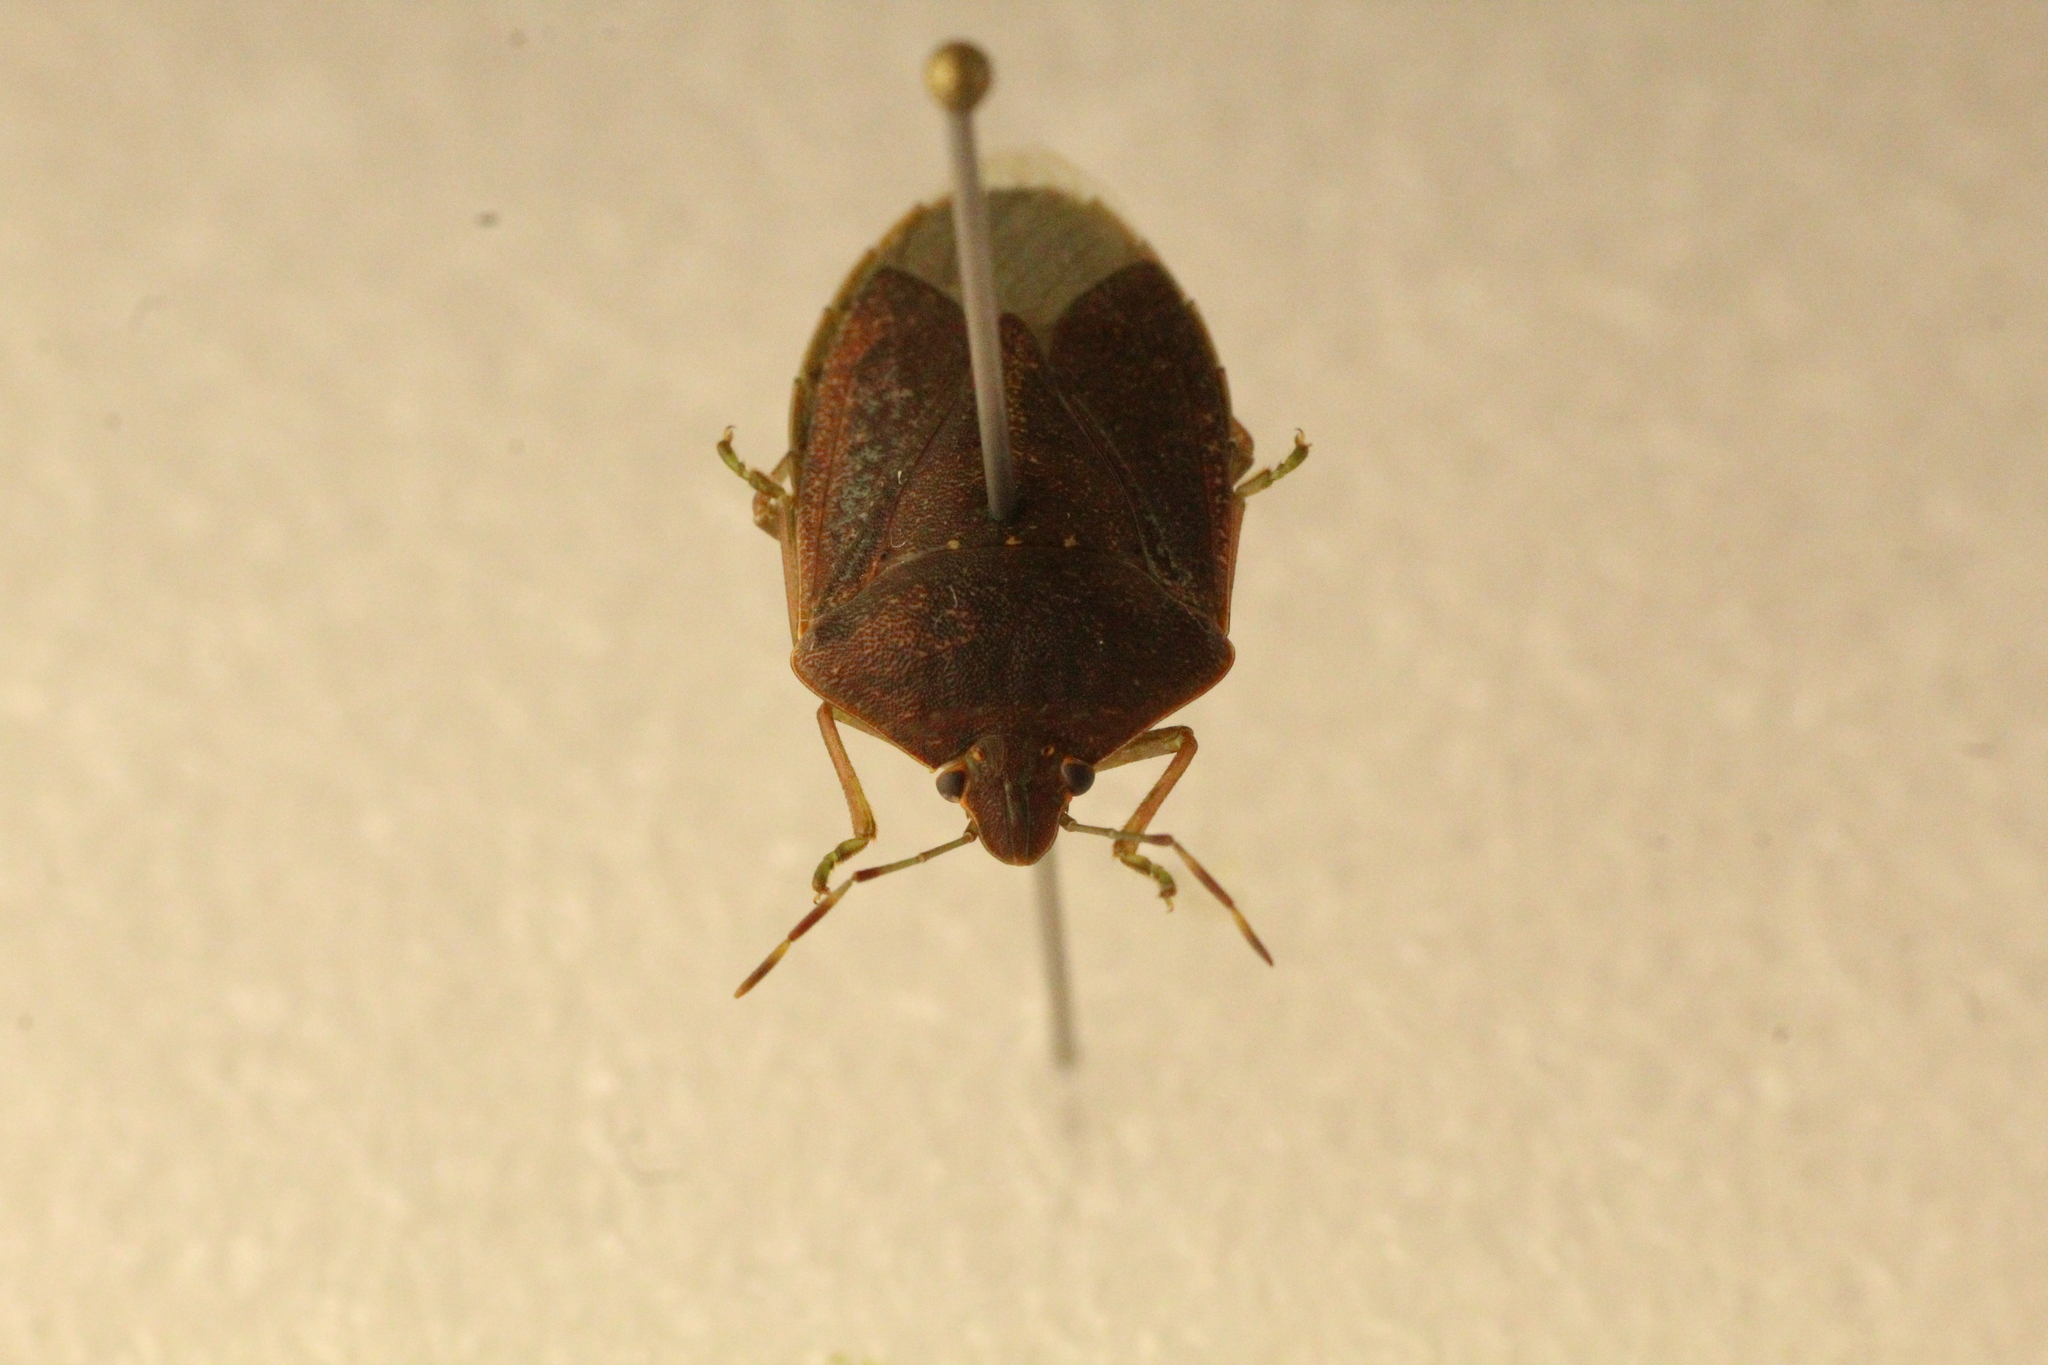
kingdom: Animalia
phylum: Arthropoda
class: Insecta
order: Hemiptera
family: Pentatomidae
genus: Nezara
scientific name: Nezara viridula
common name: Southern green stink bug
